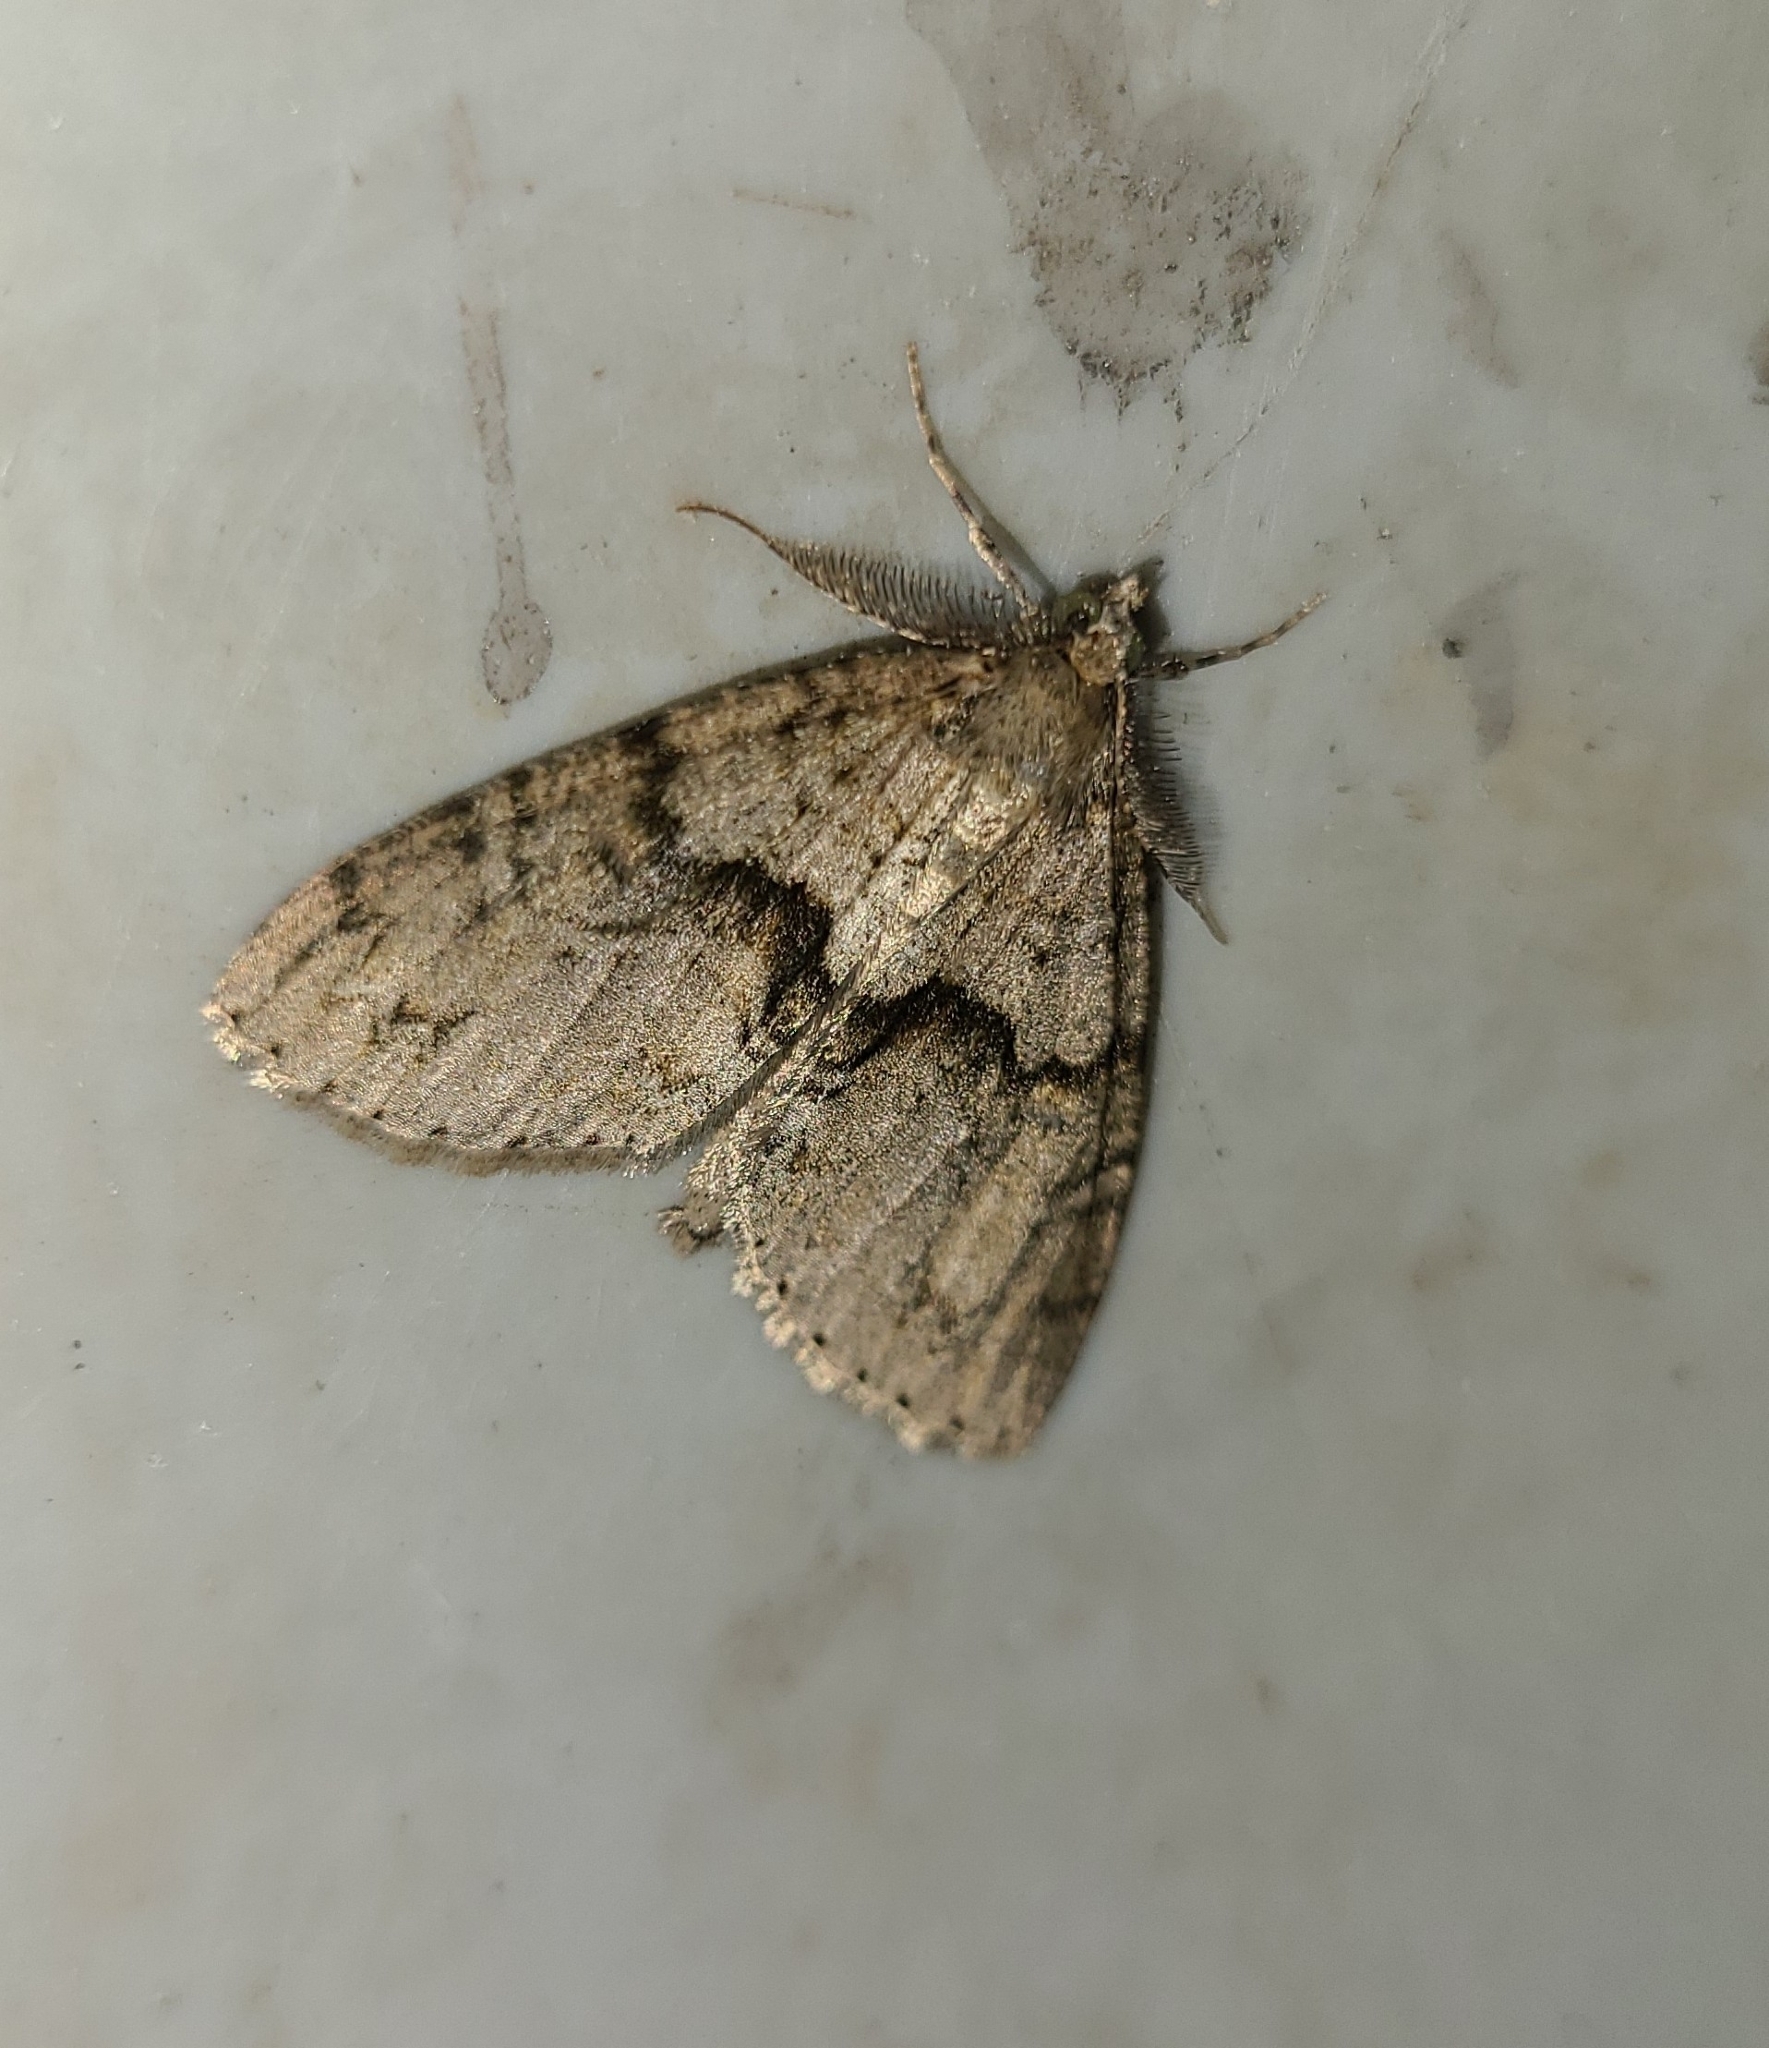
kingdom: Animalia
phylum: Arthropoda
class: Insecta
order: Lepidoptera
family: Geometridae
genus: Pseudocoremia
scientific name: Pseudocoremia suavis
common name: Common forest looper
